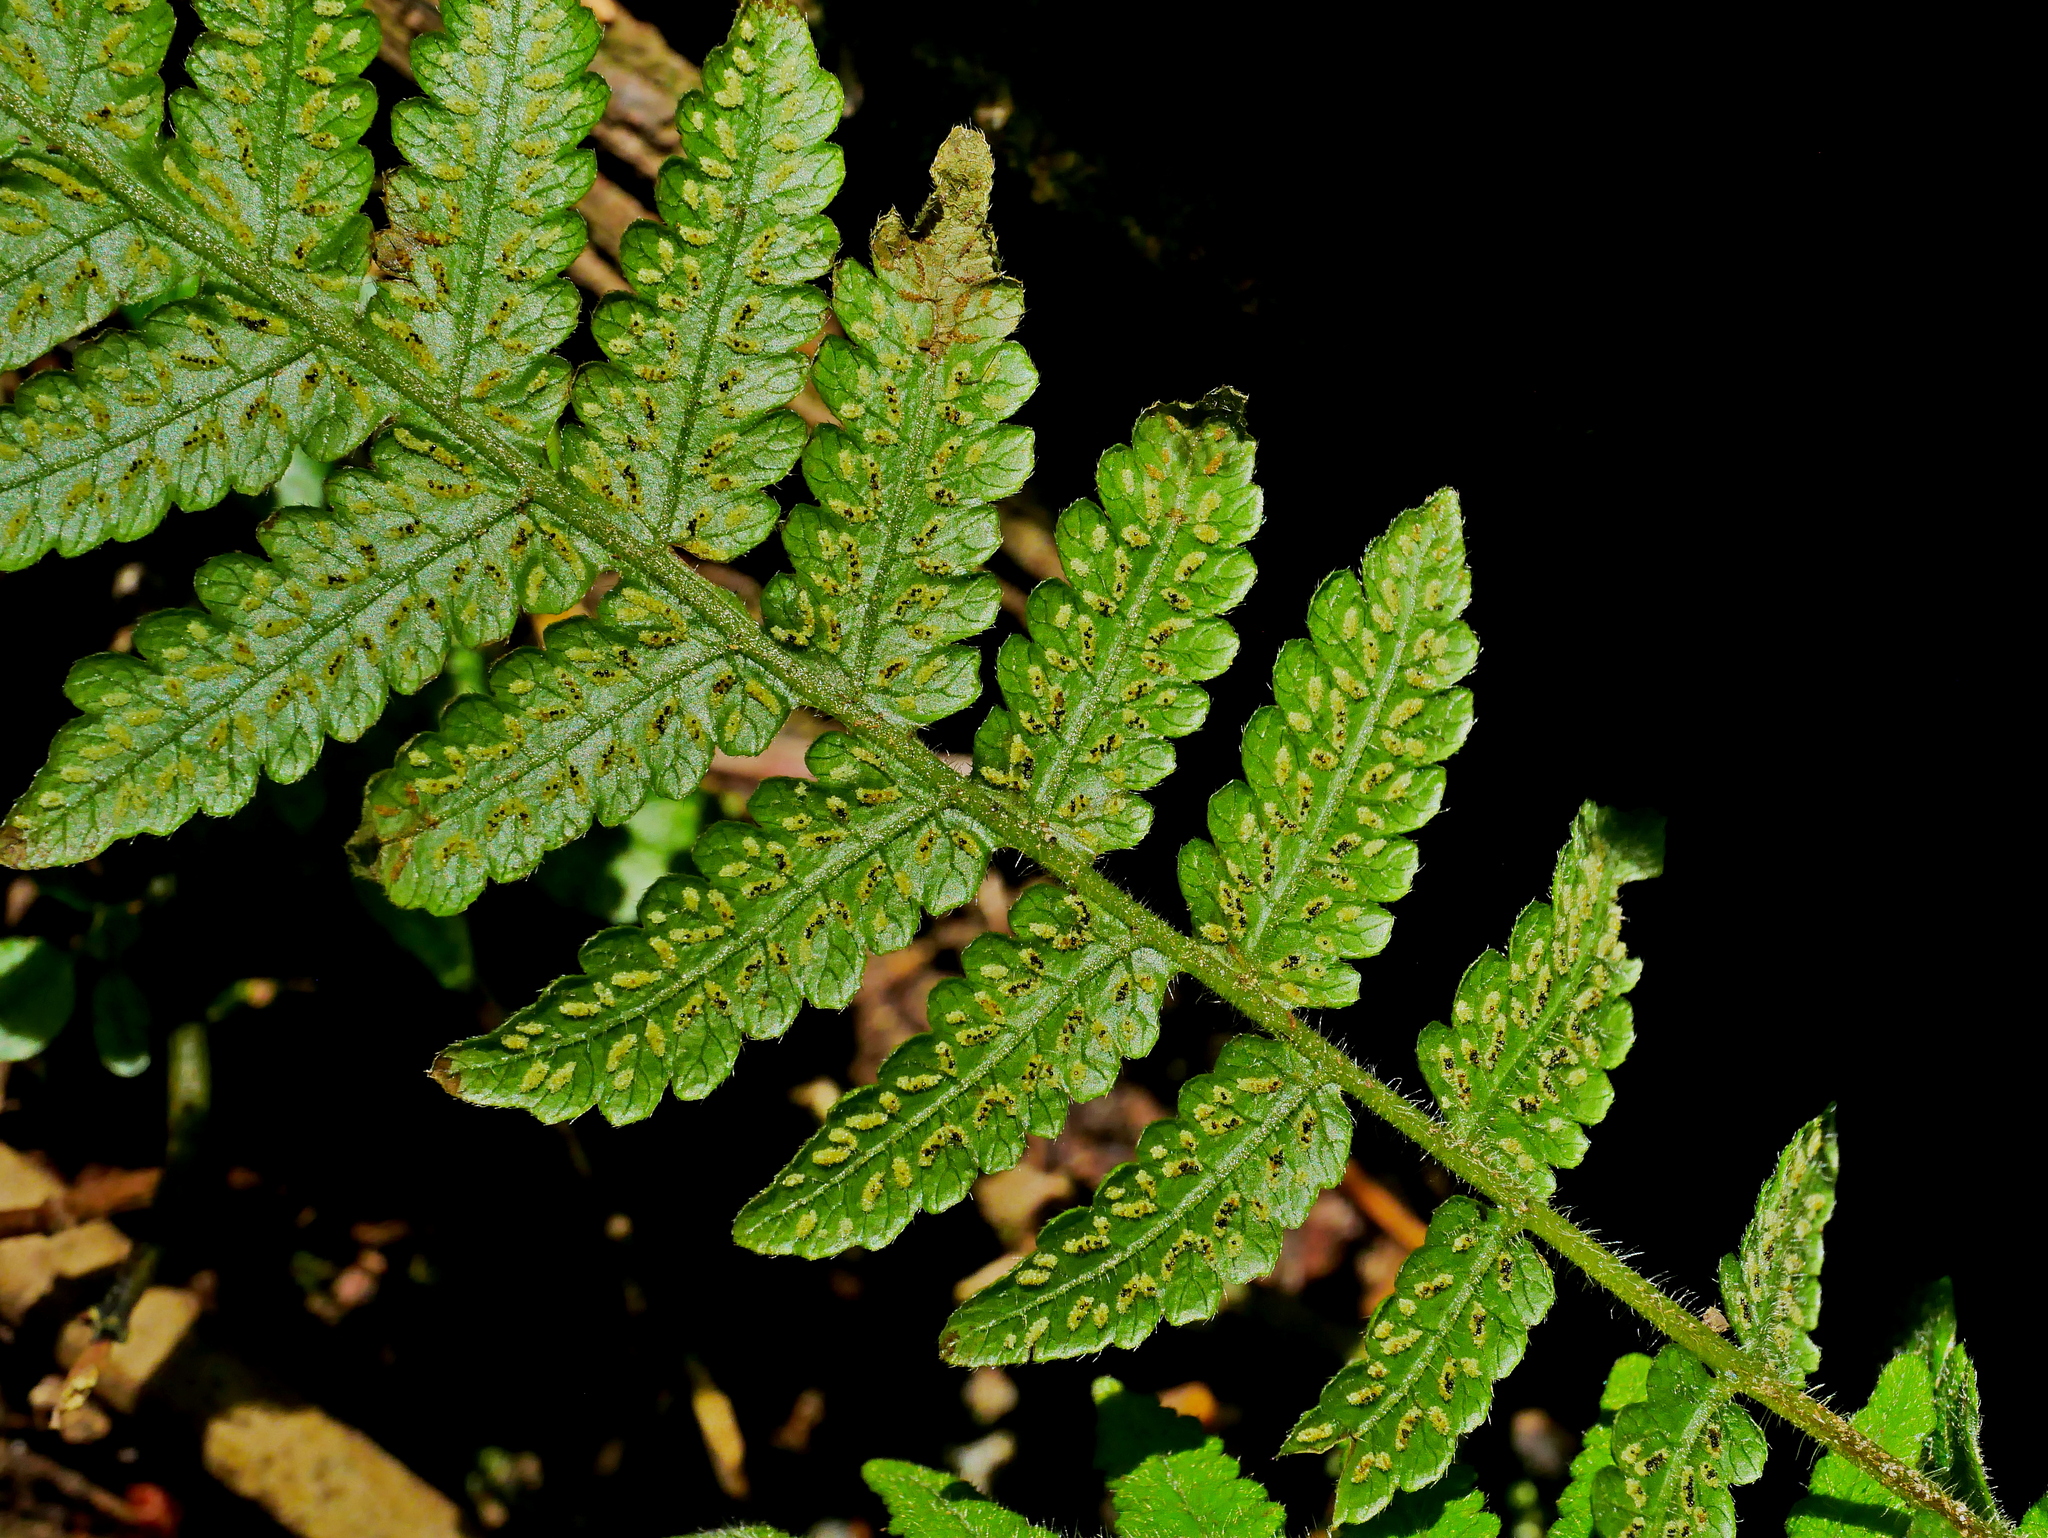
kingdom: Plantae
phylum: Tracheophyta
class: Polypodiopsida
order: Polypodiales
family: Thelypteridaceae
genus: Leptogramma
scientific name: Leptogramma tottoides
